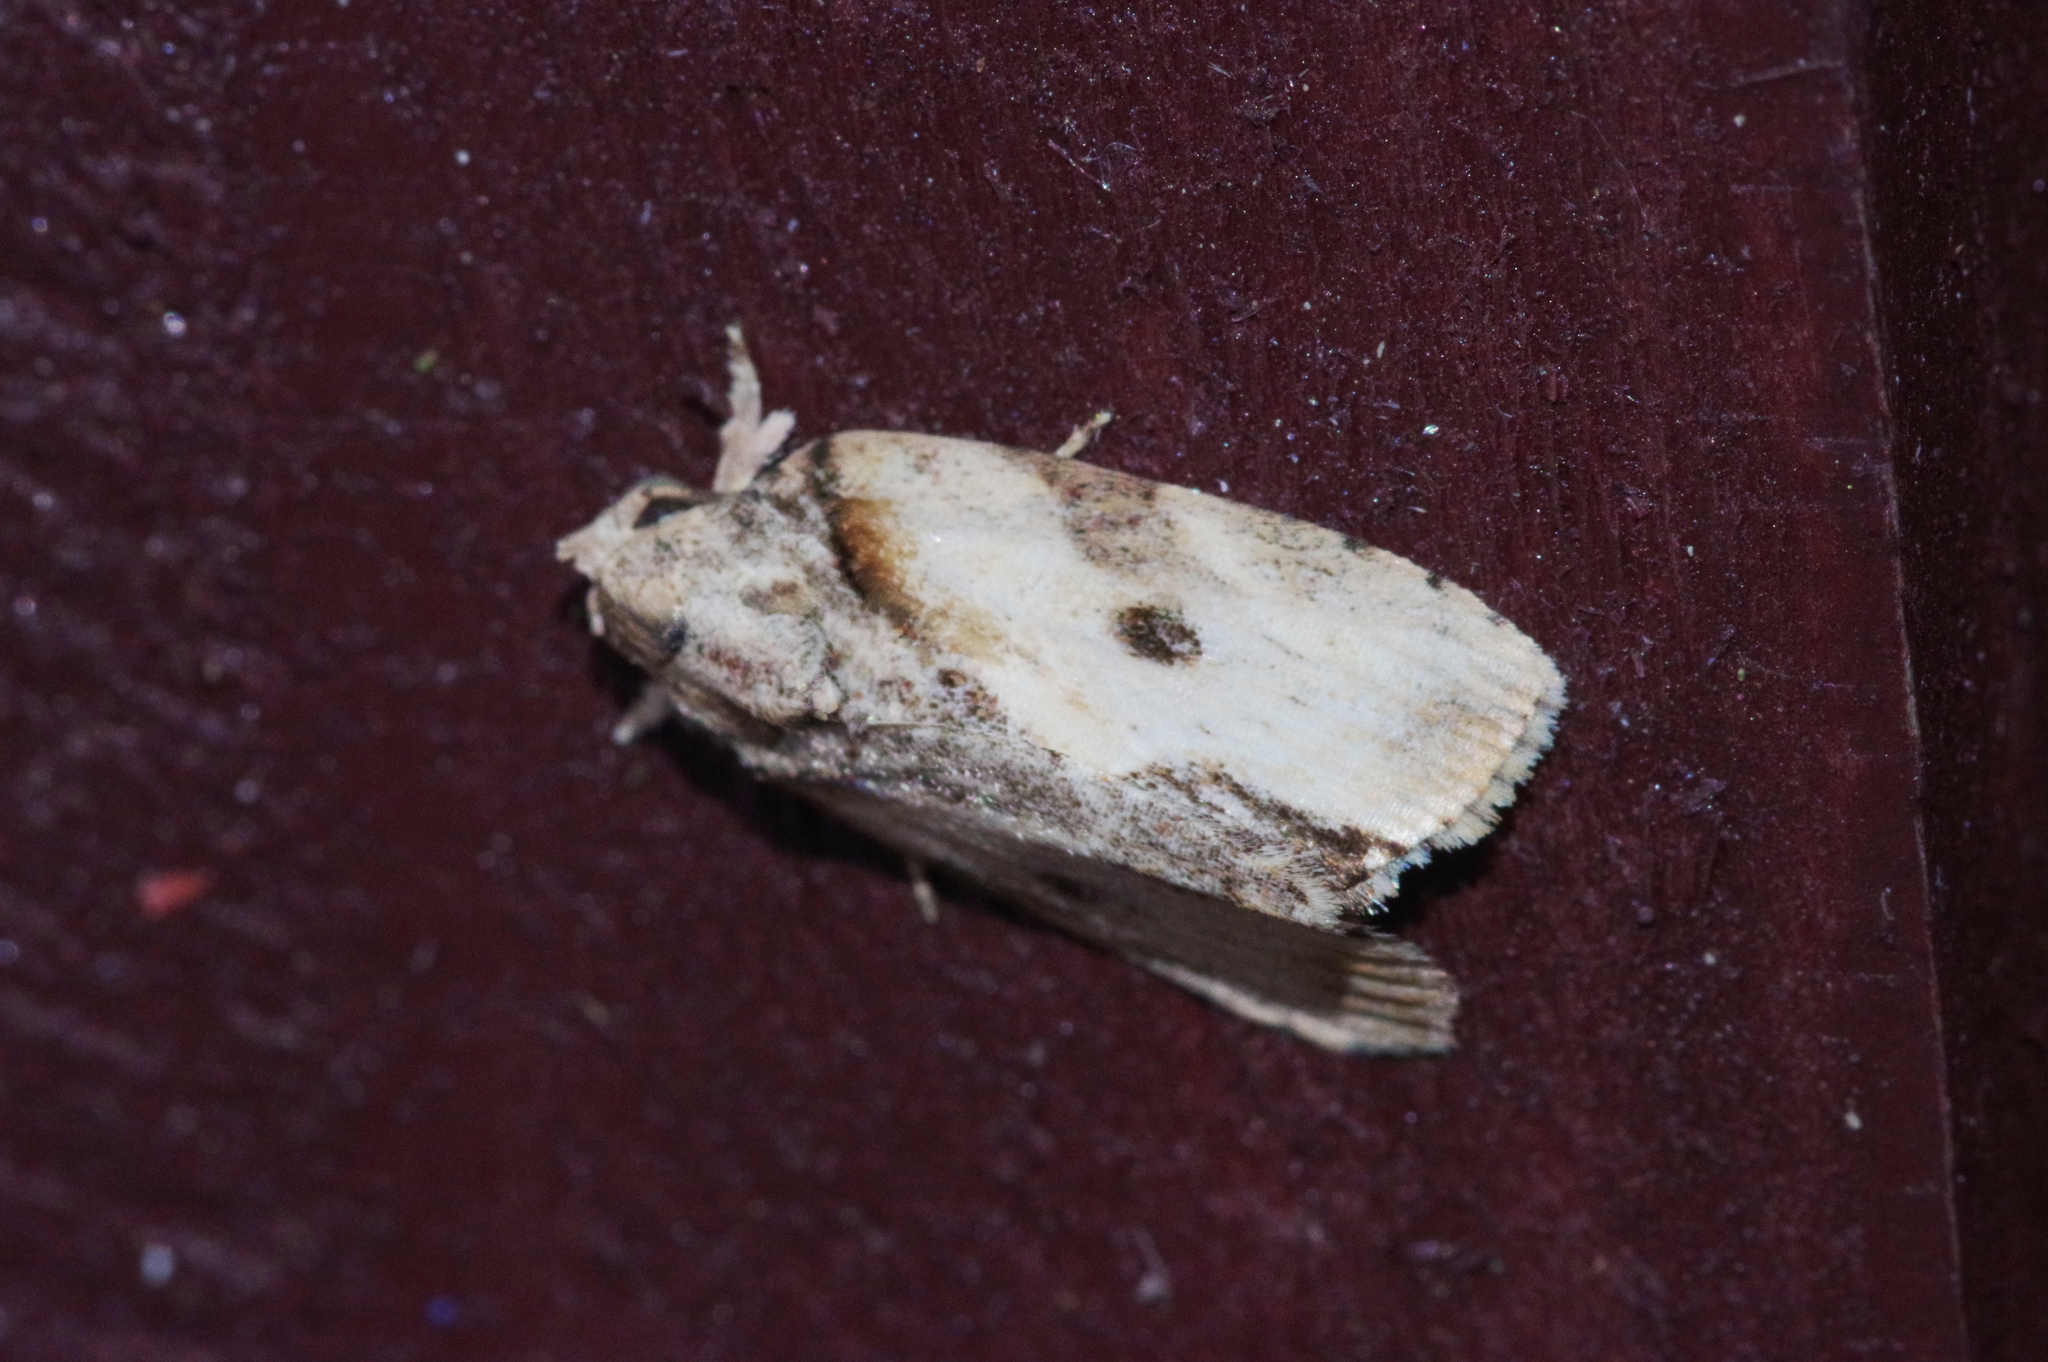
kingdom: Animalia
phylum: Arthropoda
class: Insecta
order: Lepidoptera
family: Nolidae
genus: Etanna
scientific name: Etanna breviuscula
